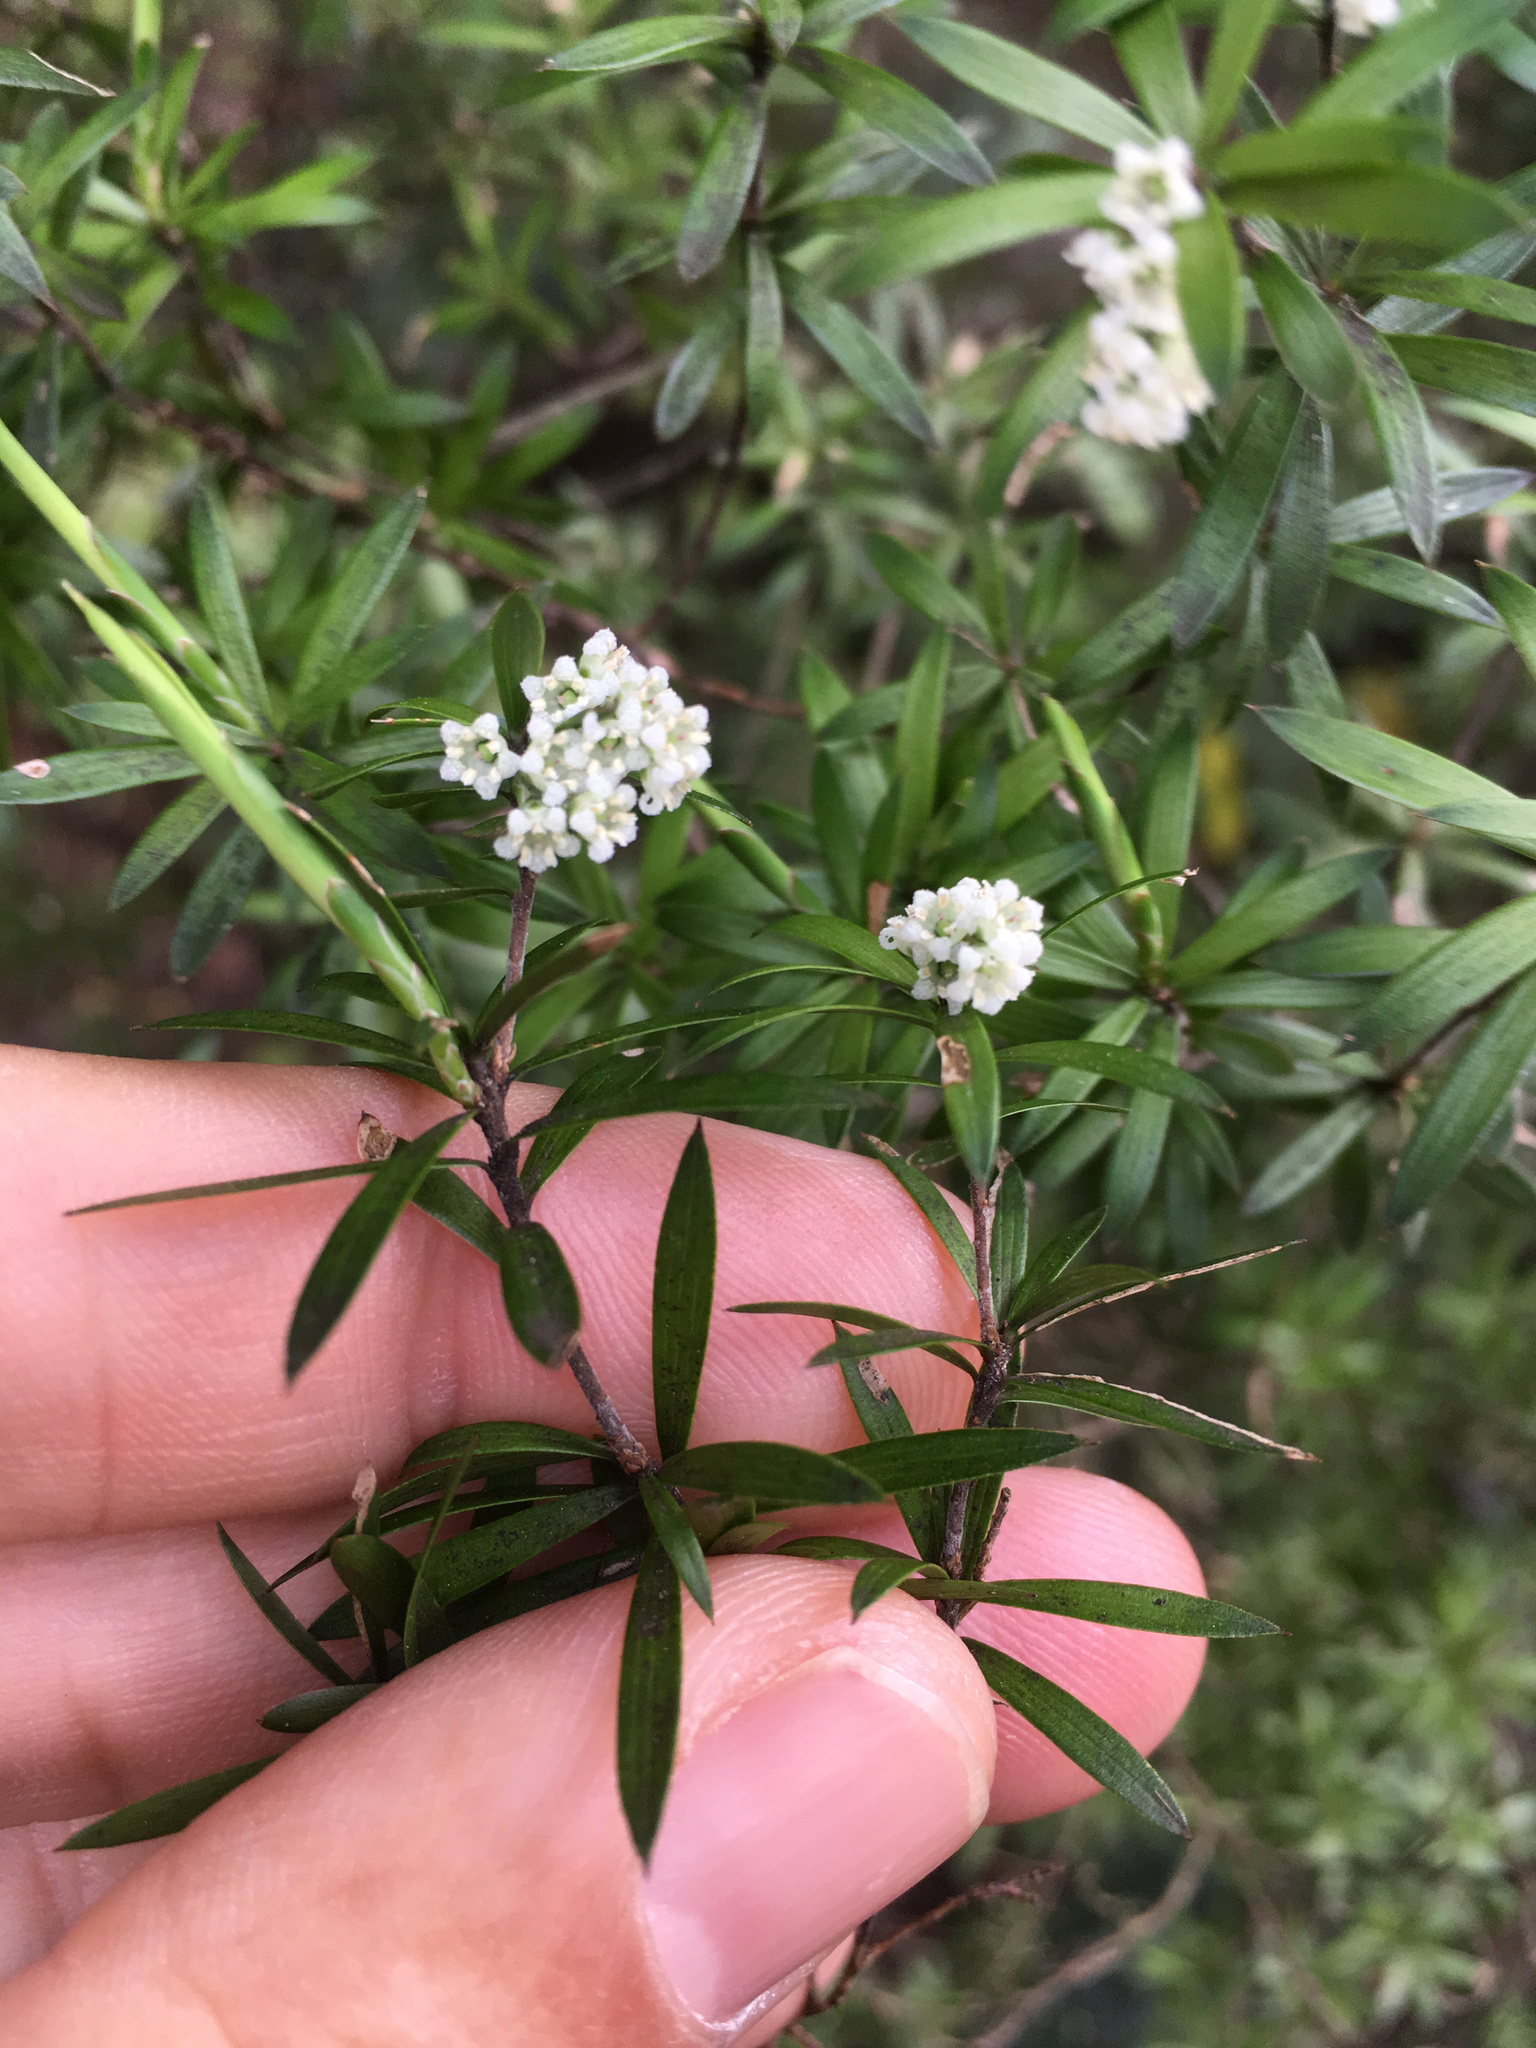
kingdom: Plantae
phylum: Tracheophyta
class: Magnoliopsida
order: Ericales
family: Ericaceae
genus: Leucopogon
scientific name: Leucopogon fasciculatus
